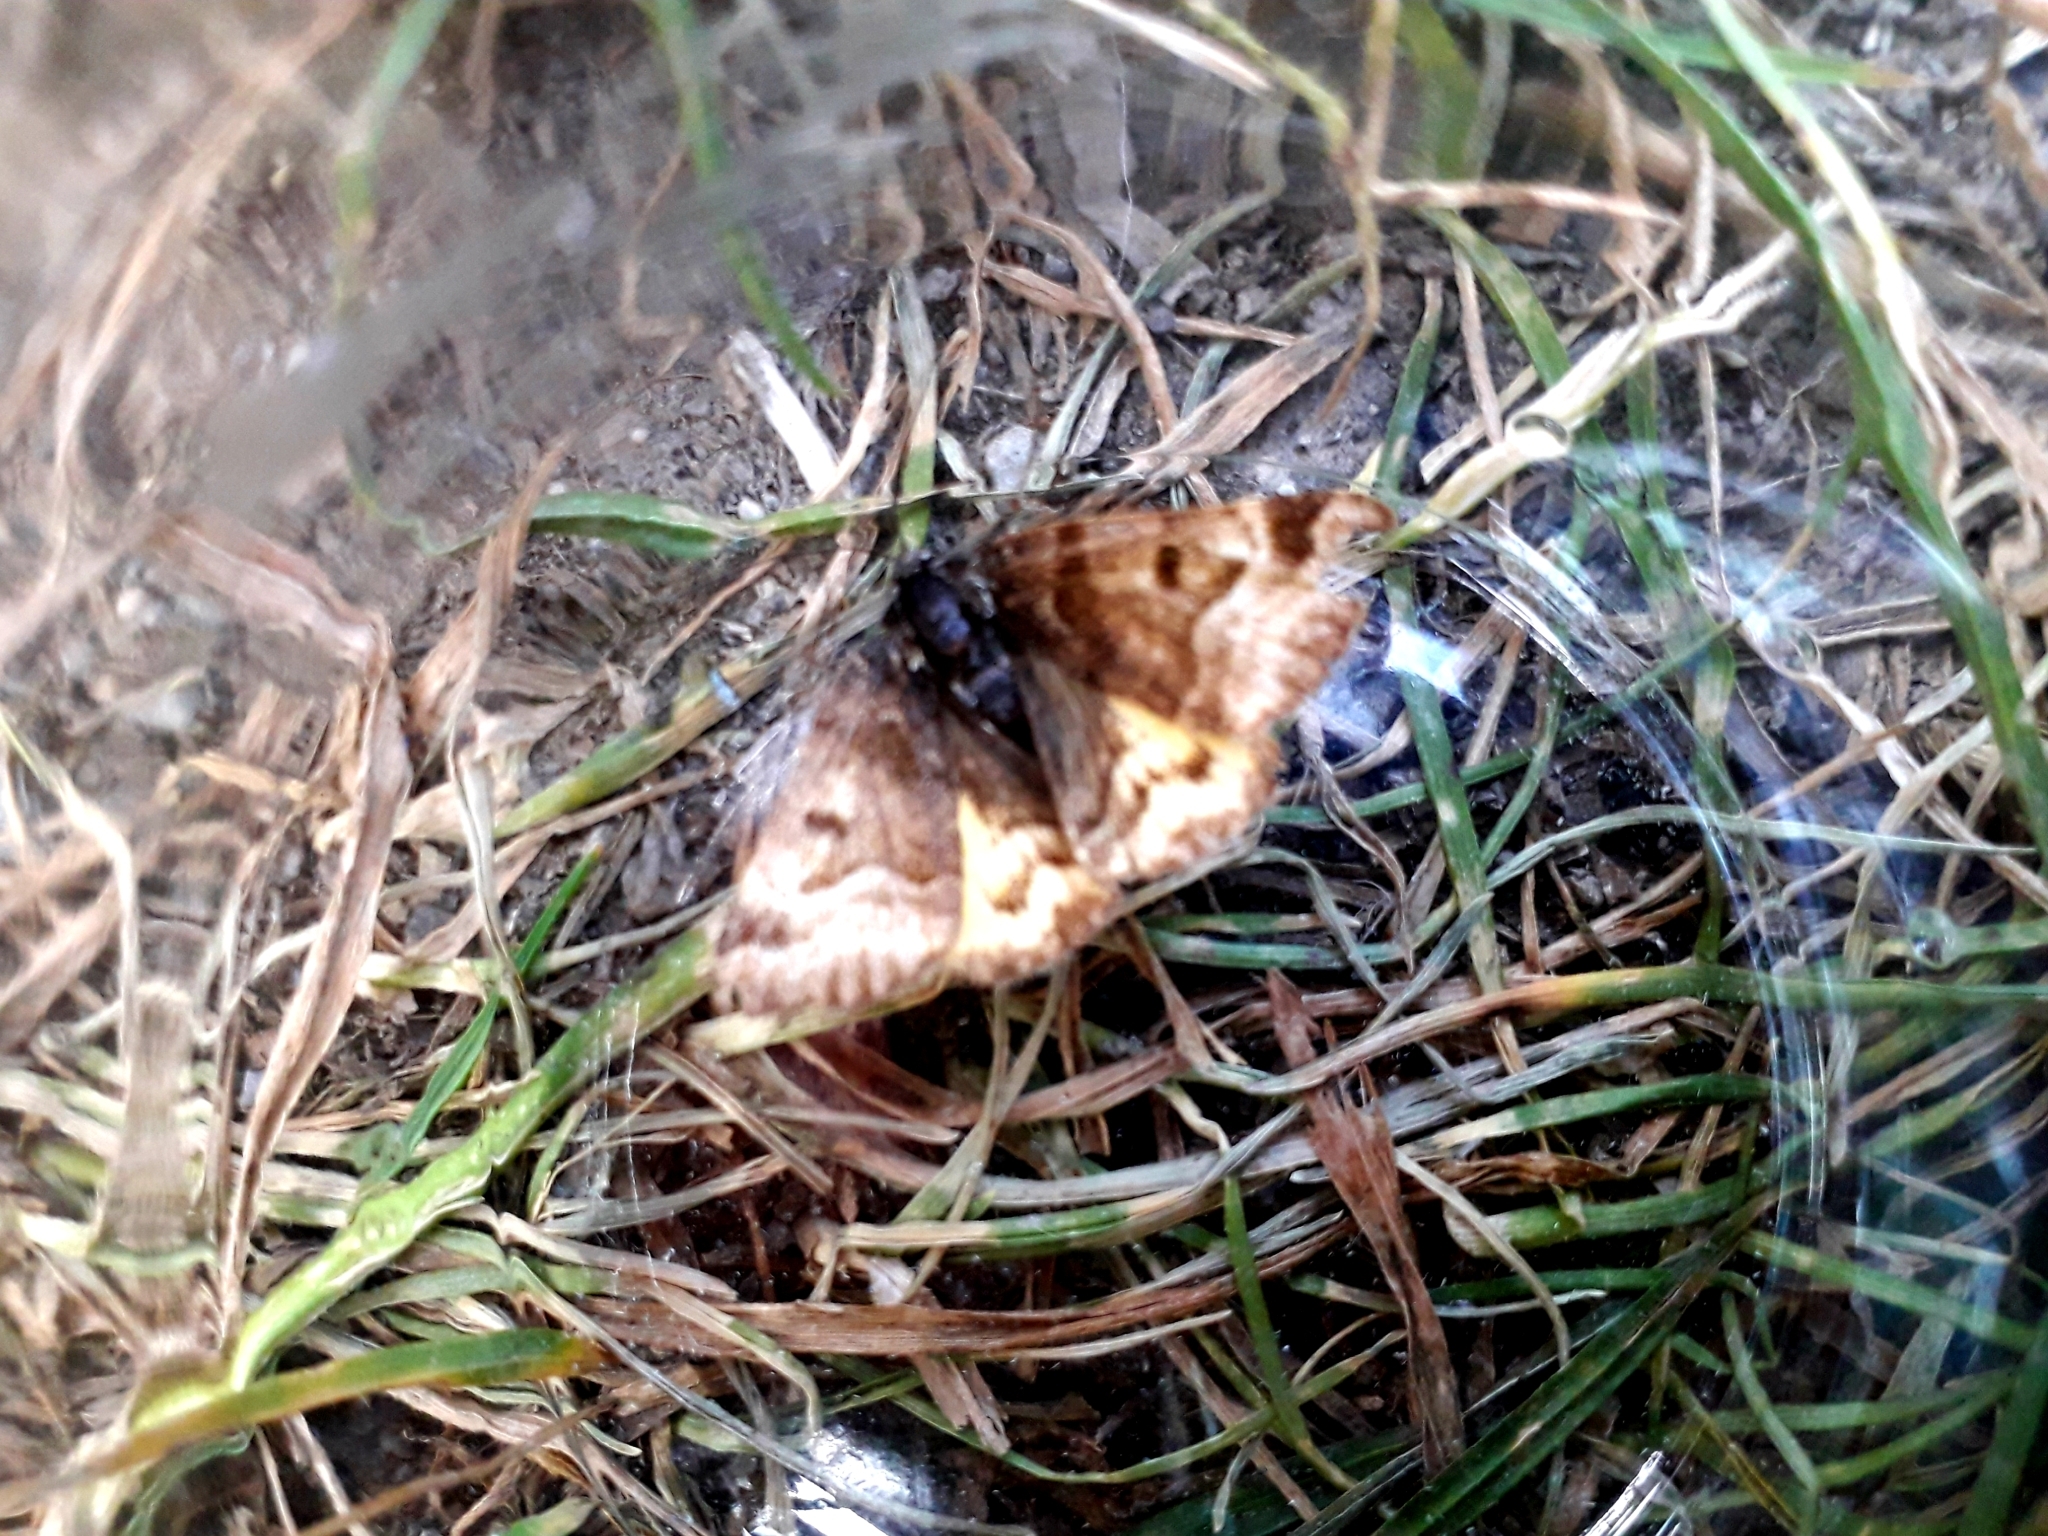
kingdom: Animalia
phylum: Arthropoda
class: Insecta
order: Lepidoptera
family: Erebidae
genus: Euclidia
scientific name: Euclidia glyphica
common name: Burnet companion
